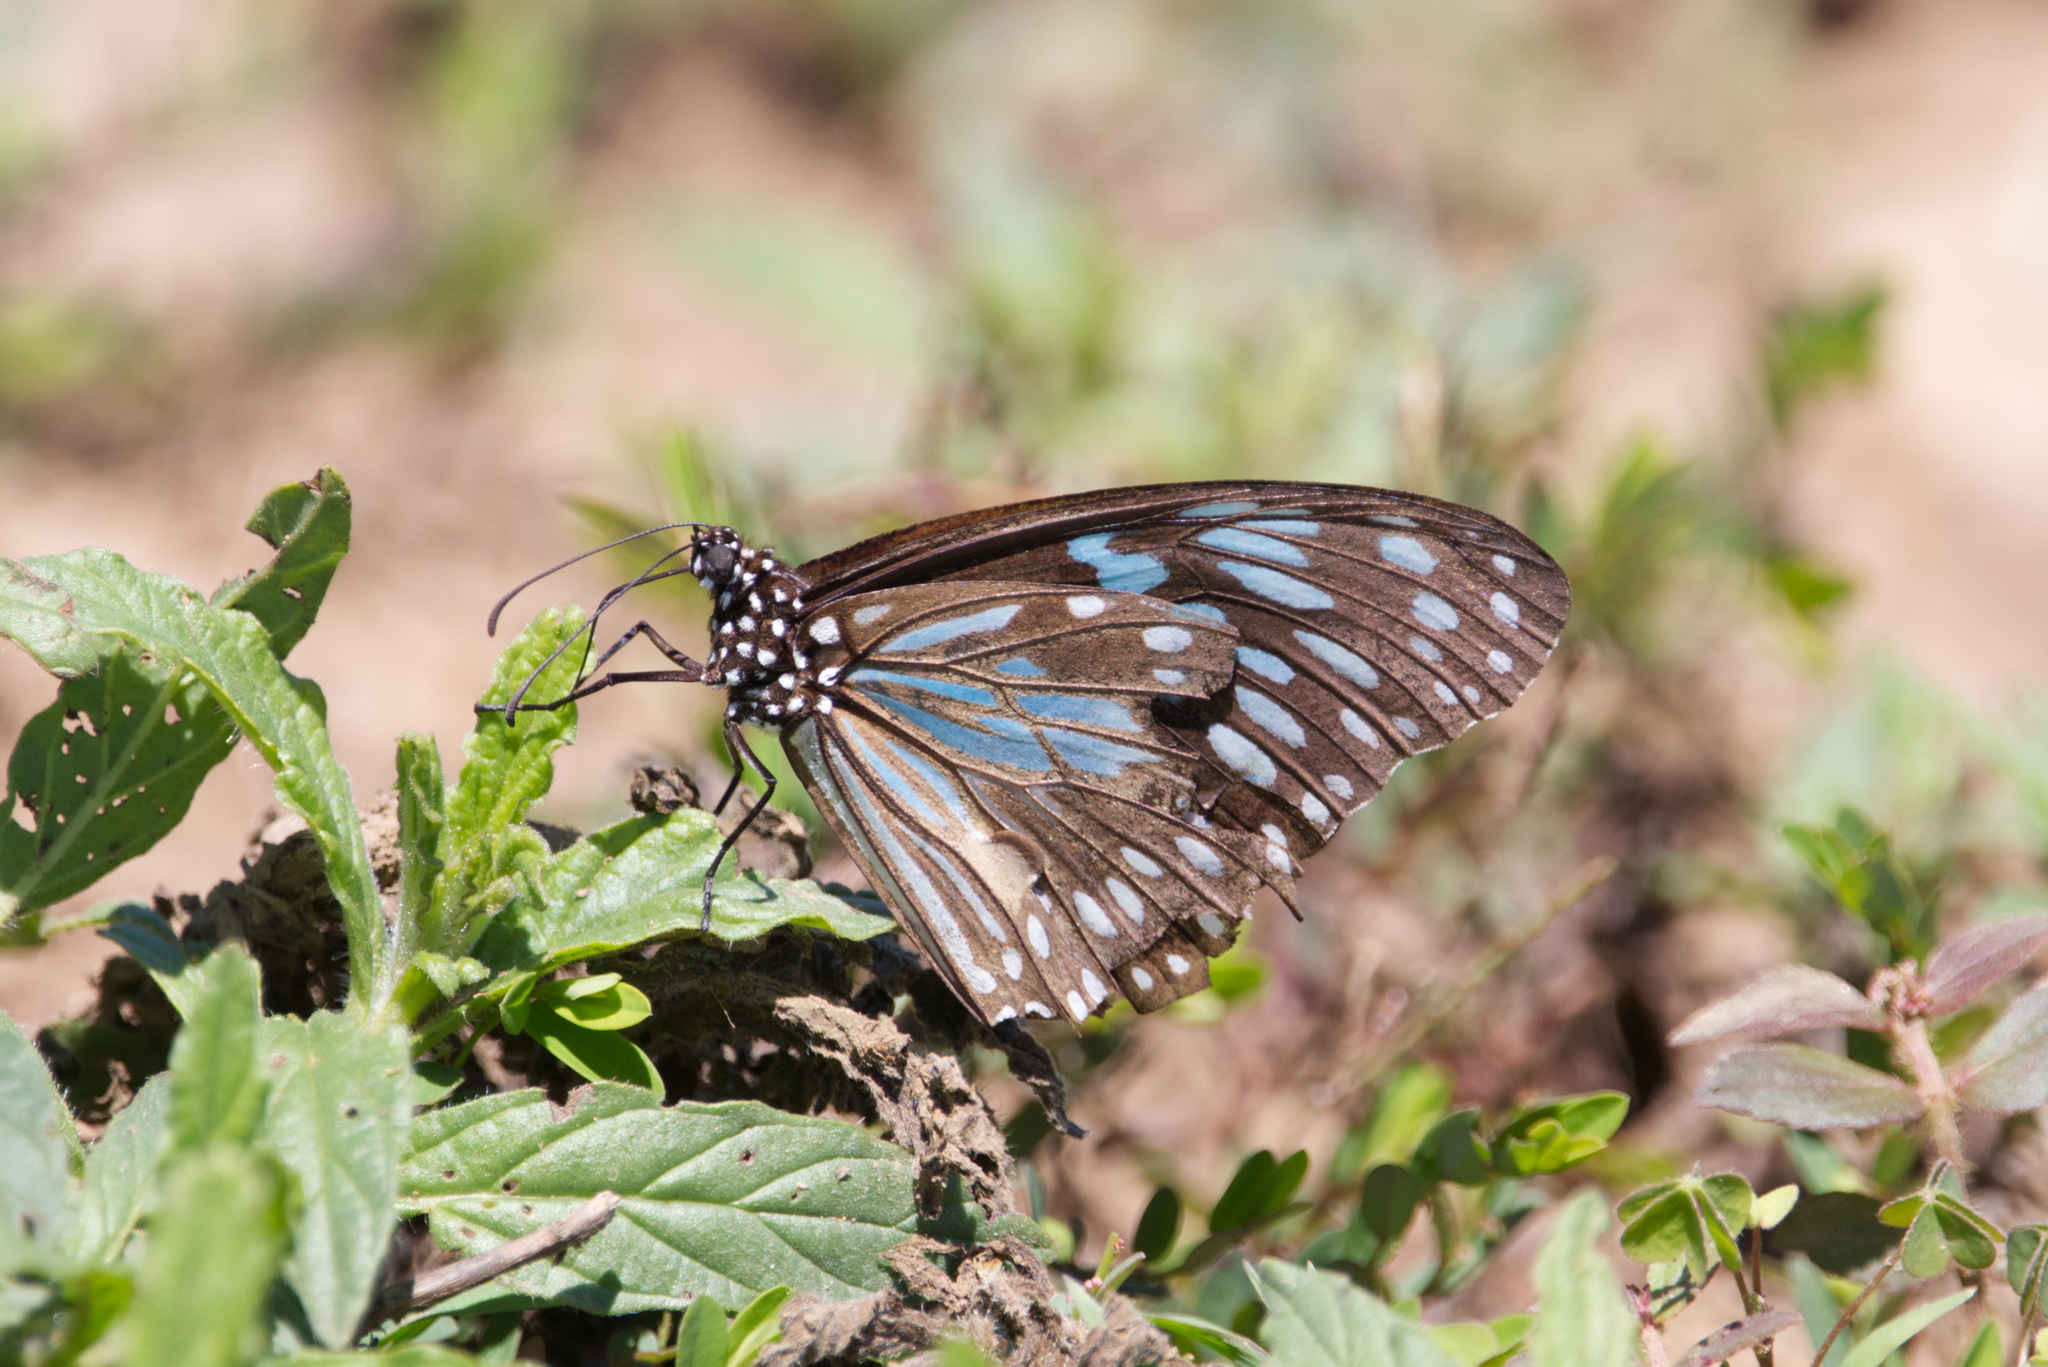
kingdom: Animalia
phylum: Arthropoda
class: Insecta
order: Lepidoptera
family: Nymphalidae
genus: Tirumala
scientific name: Tirumala hamata
